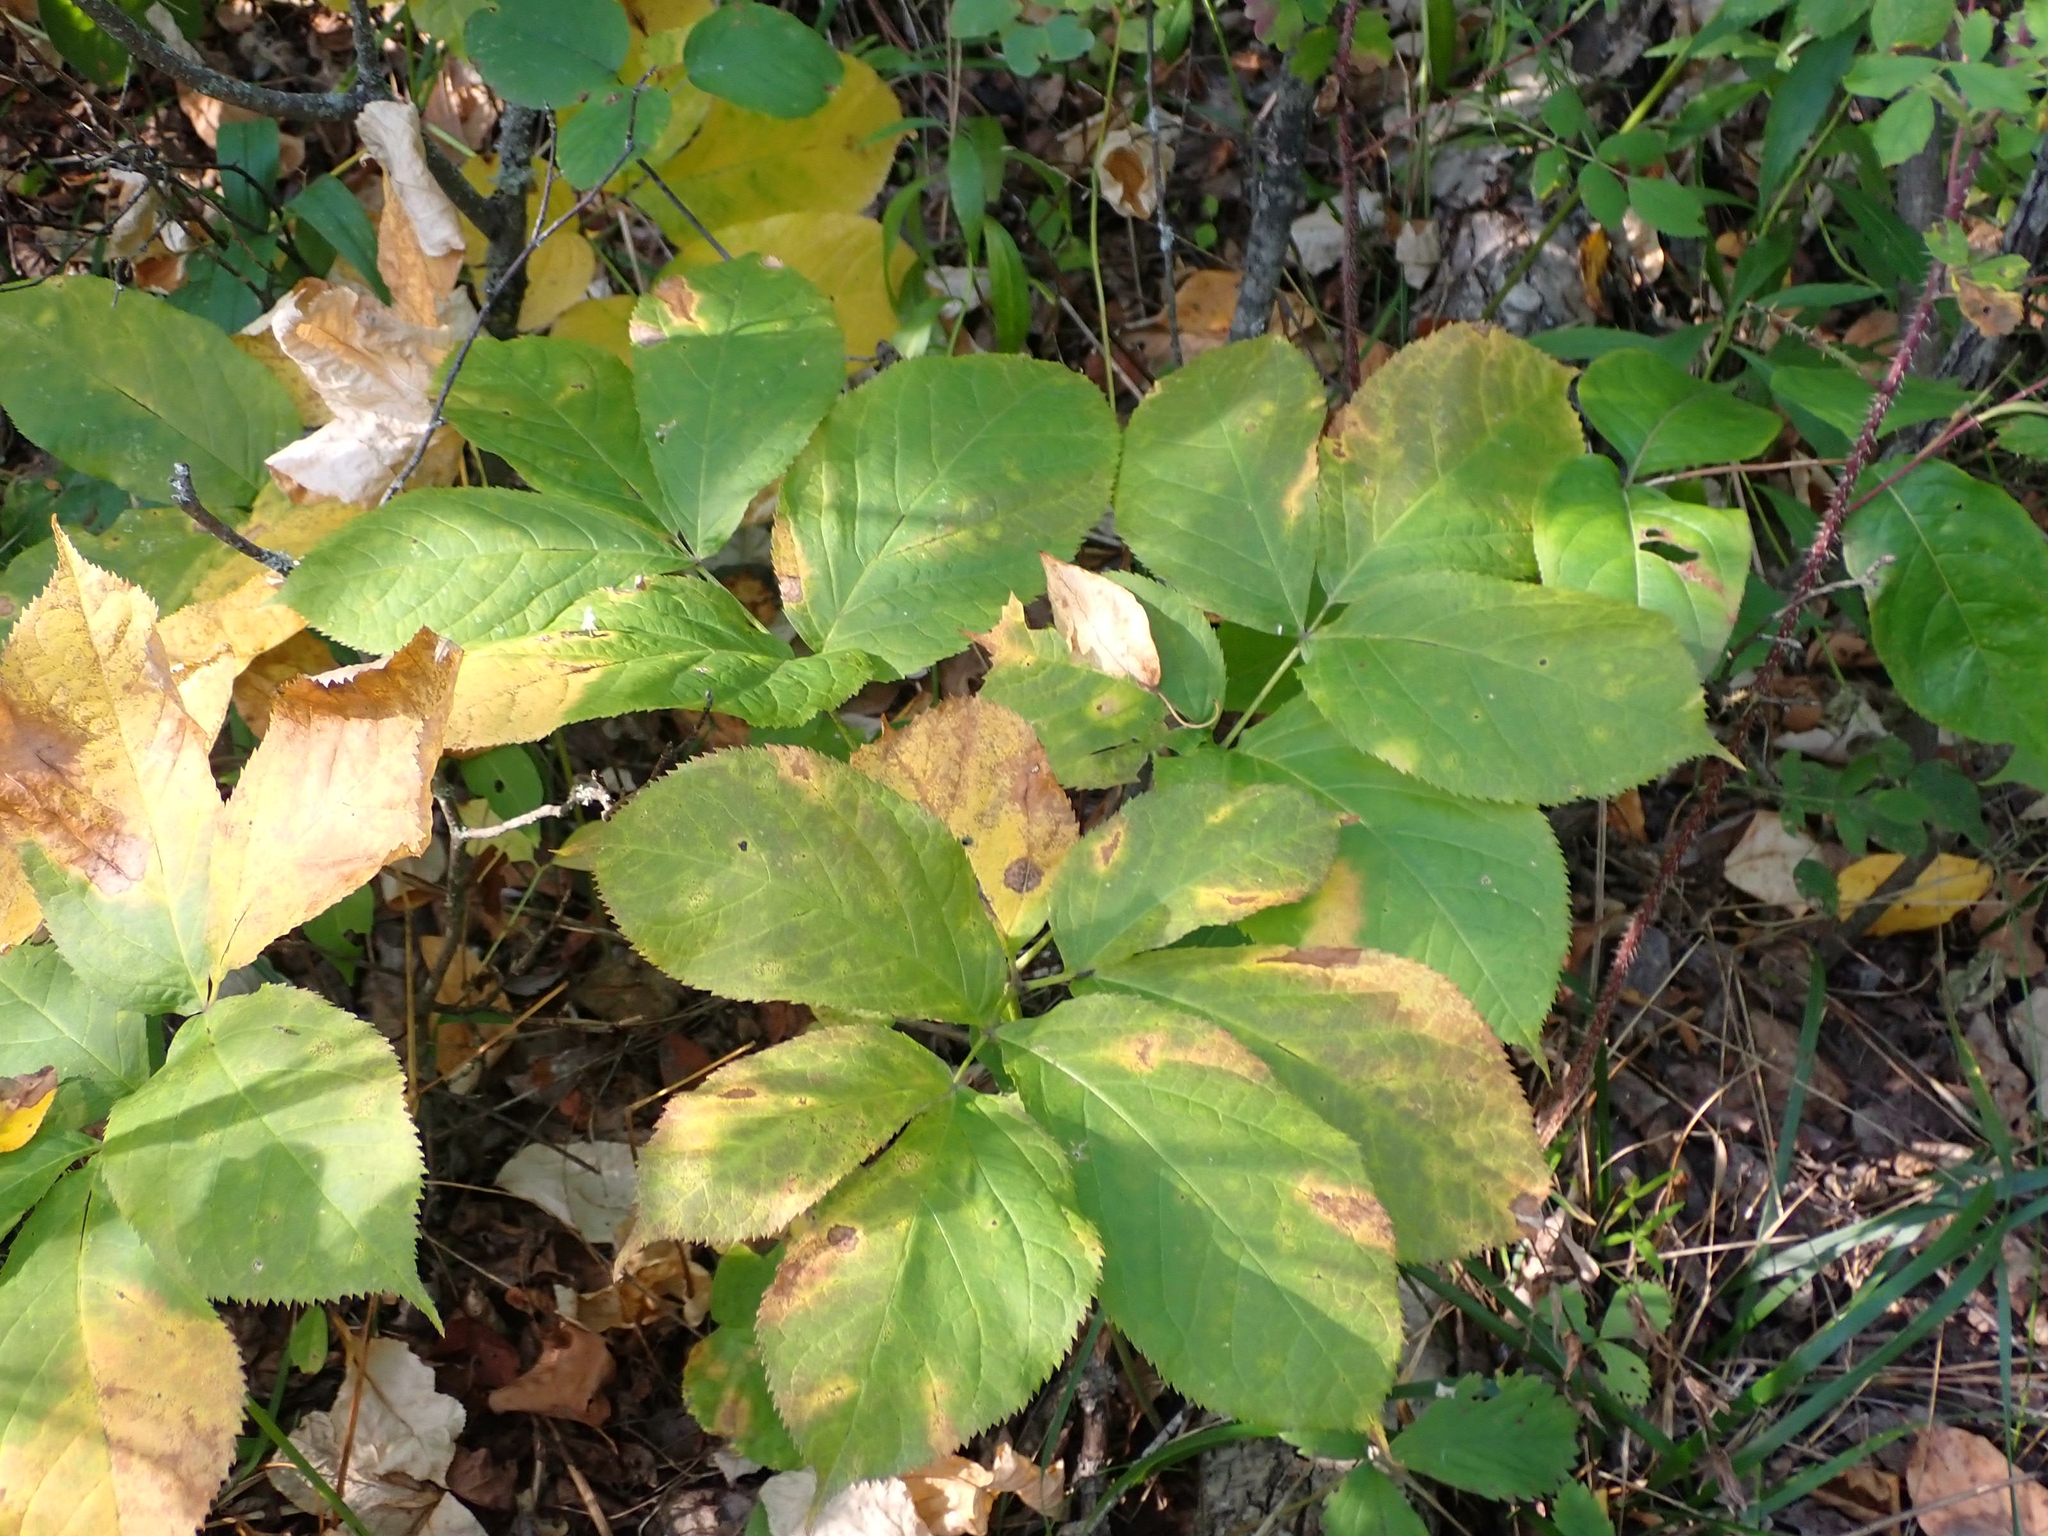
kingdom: Plantae
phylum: Tracheophyta
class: Magnoliopsida
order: Apiales
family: Araliaceae
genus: Aralia
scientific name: Aralia nudicaulis
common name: Wild sarsaparilla
